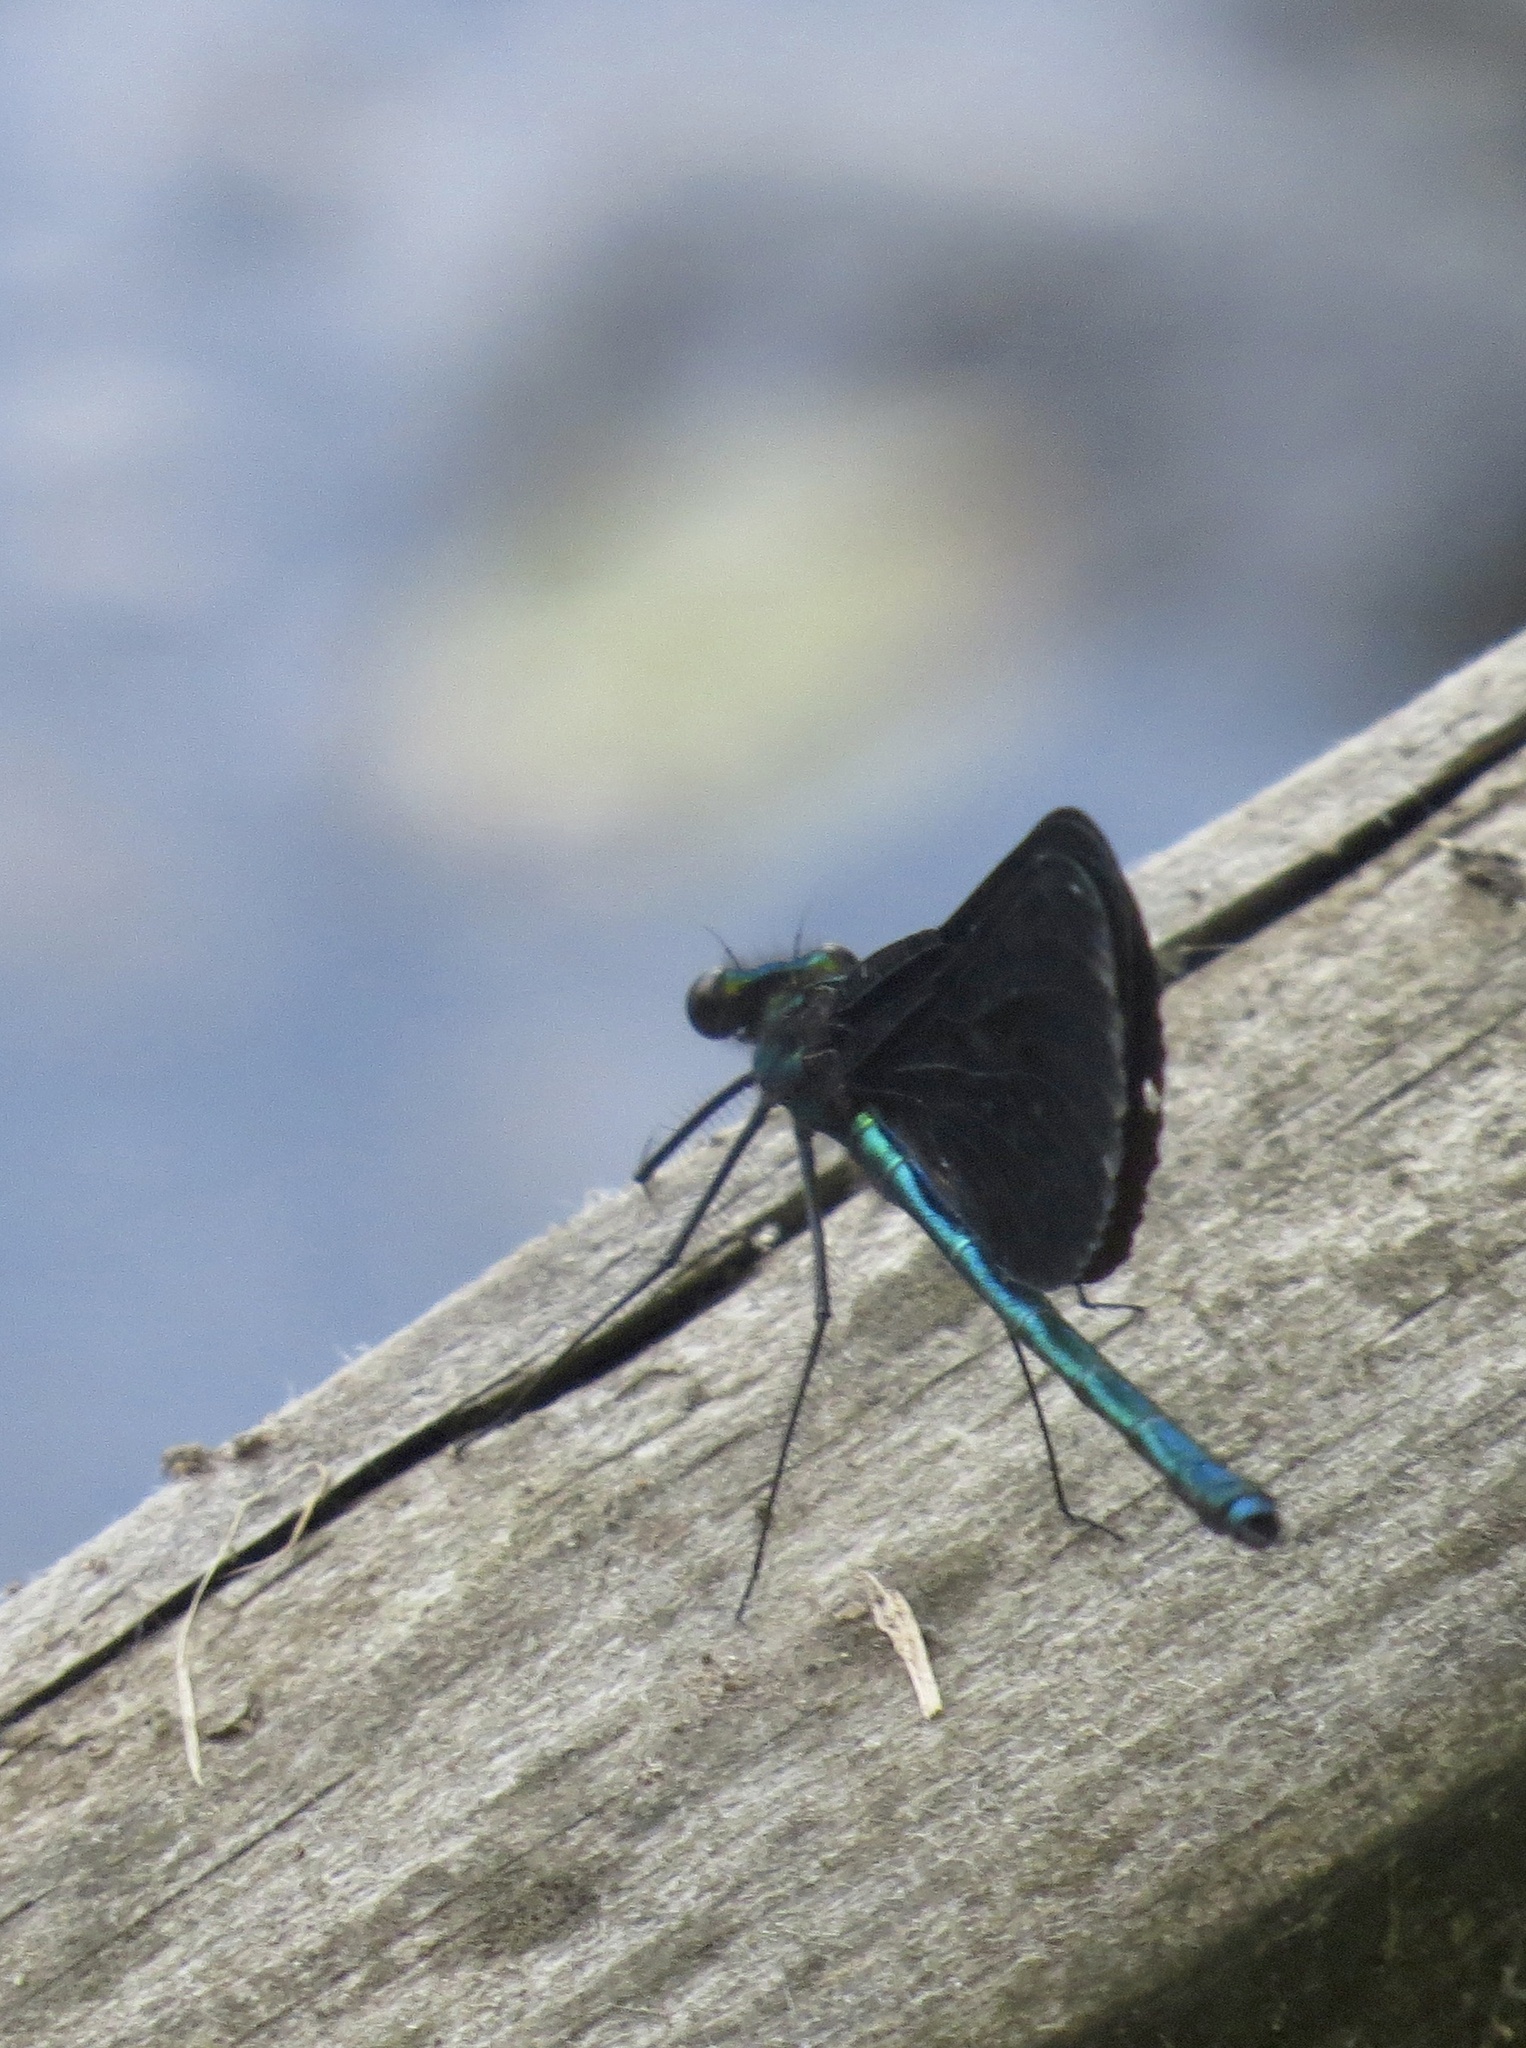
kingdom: Animalia
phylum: Arthropoda
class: Insecta
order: Odonata
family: Calopterygidae
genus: Calopteryx
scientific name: Calopteryx maculata
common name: Ebony jewelwing
